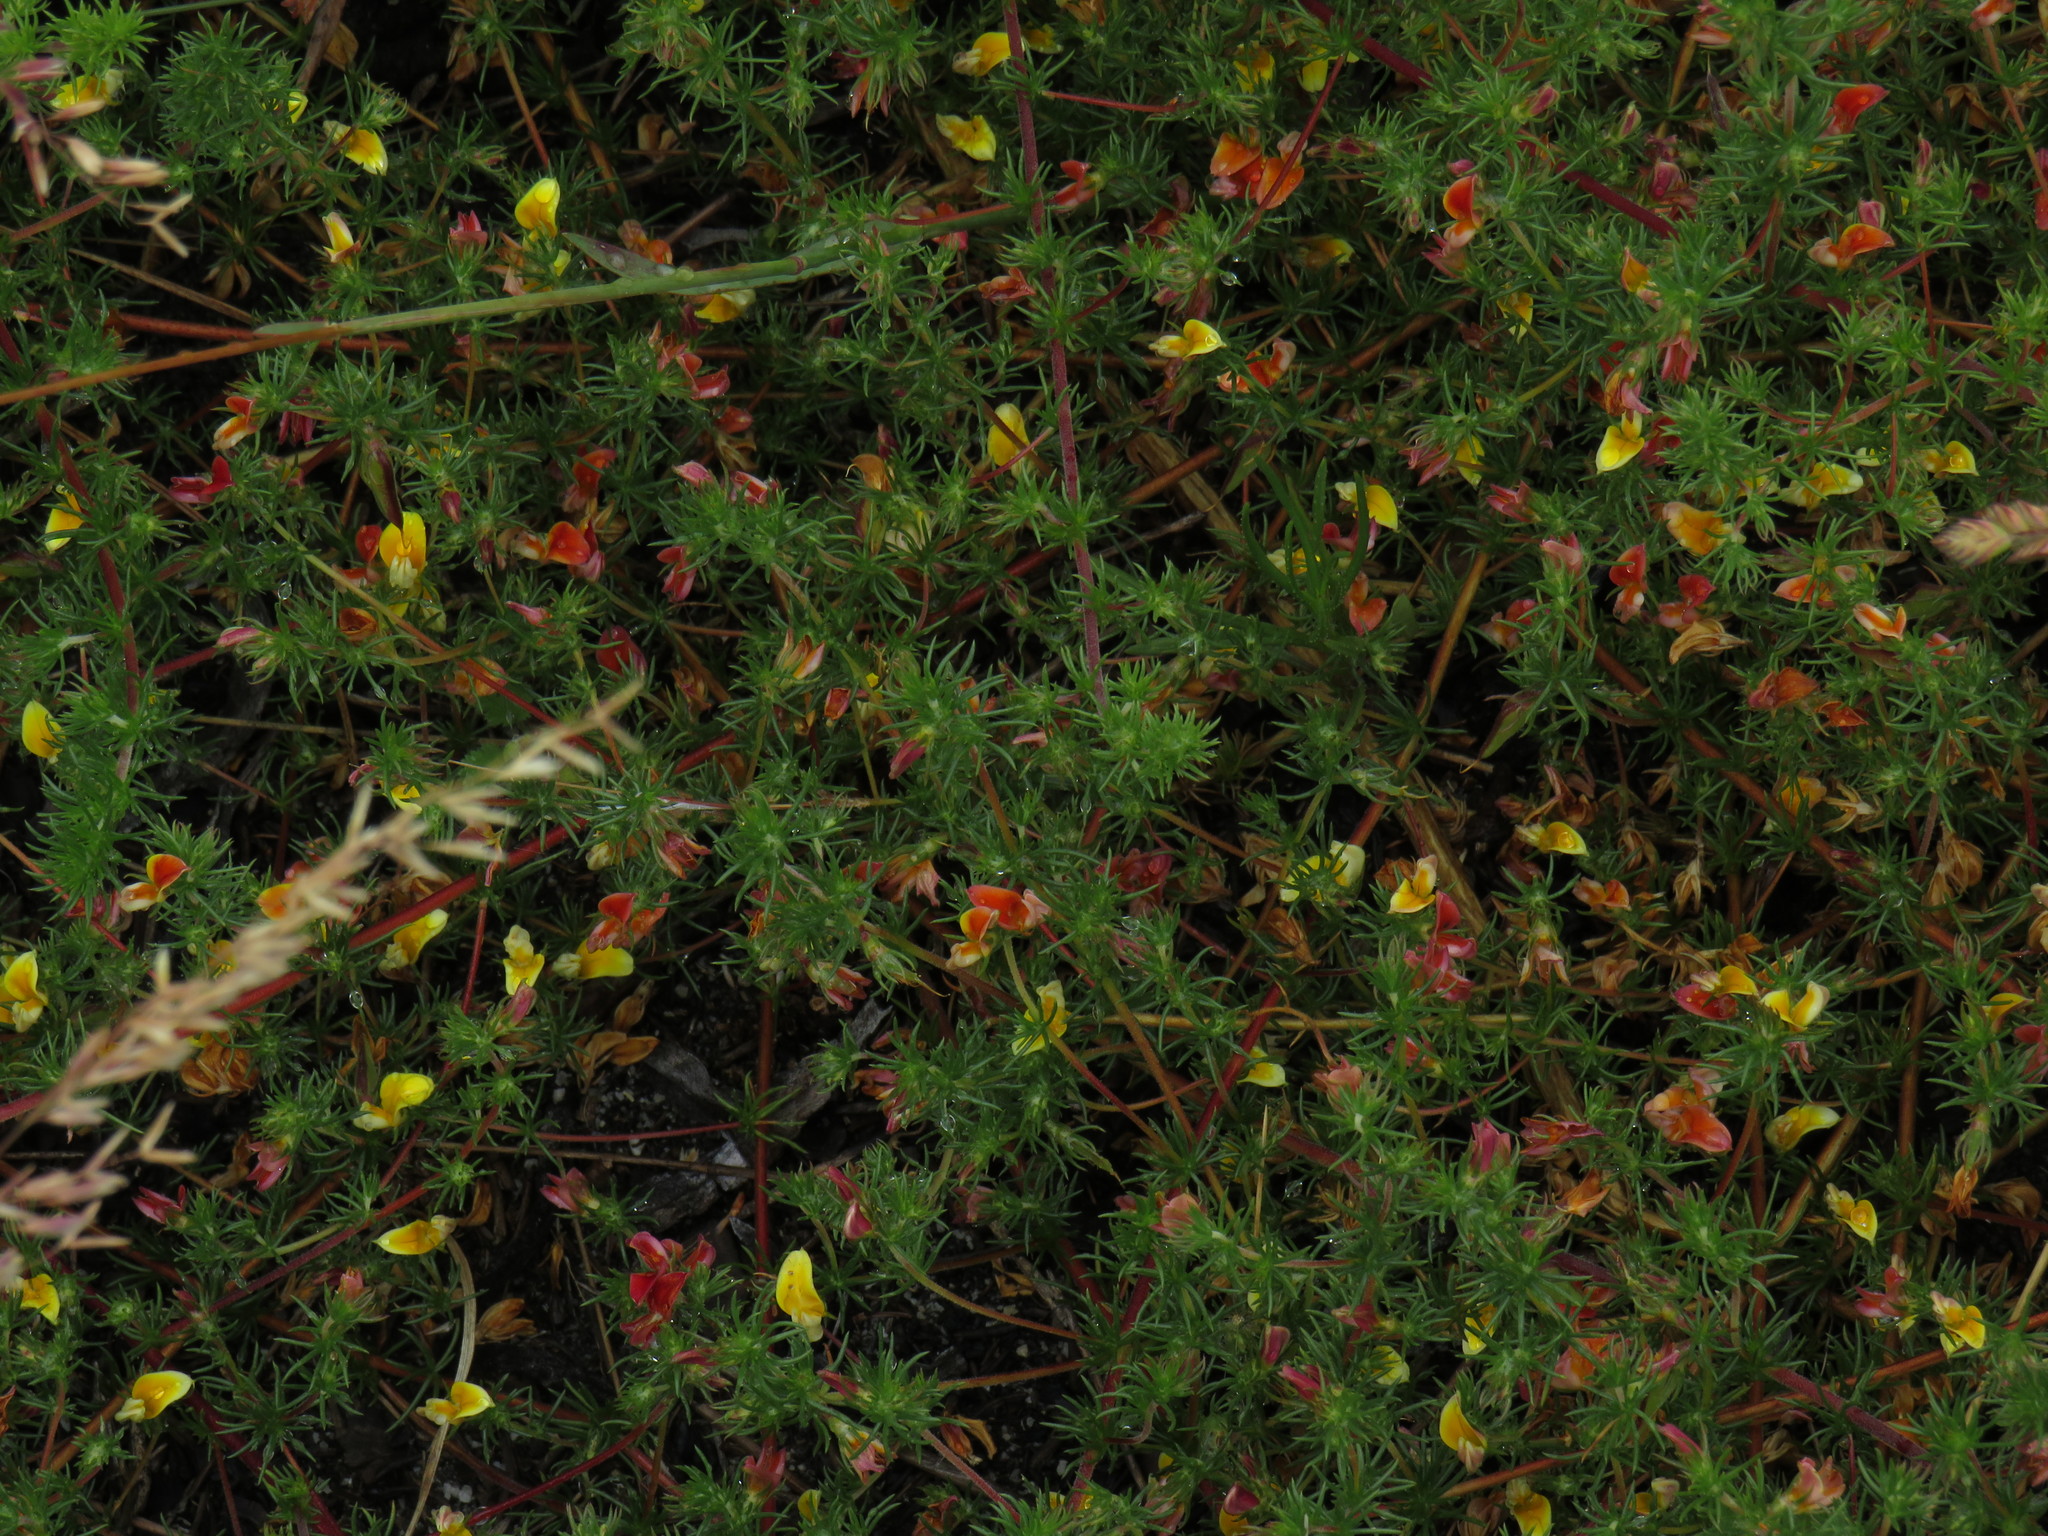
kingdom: Plantae
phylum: Tracheophyta
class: Magnoliopsida
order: Fabales
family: Fabaceae
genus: Aspalathus
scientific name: Aspalathus retroflexa
